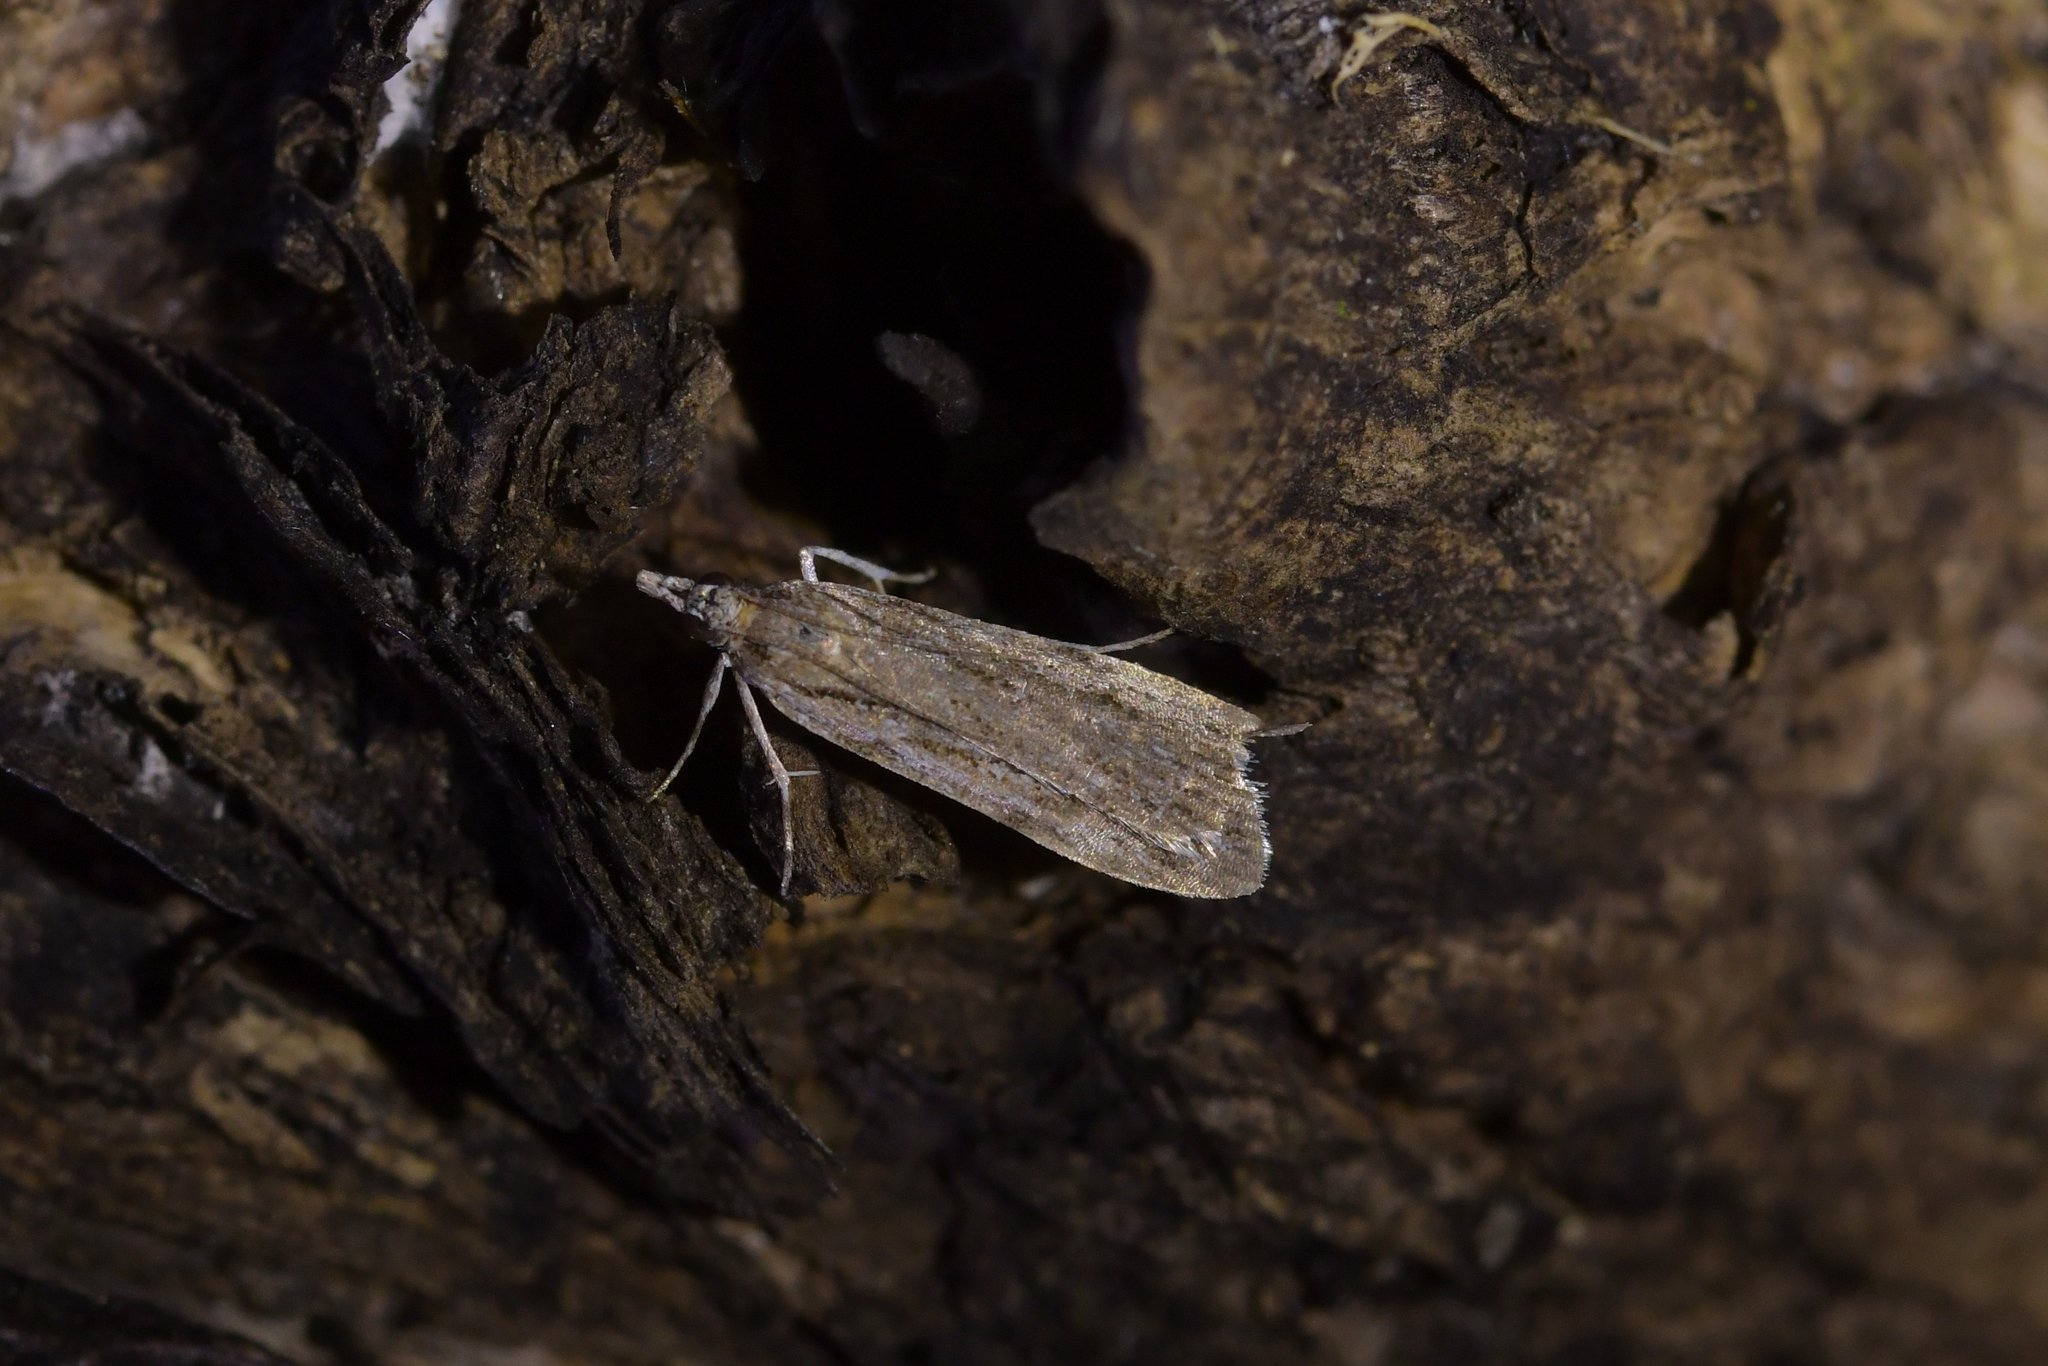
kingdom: Animalia
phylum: Arthropoda
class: Insecta
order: Lepidoptera
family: Crambidae
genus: Scoparia
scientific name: Scoparia indistinctalis
